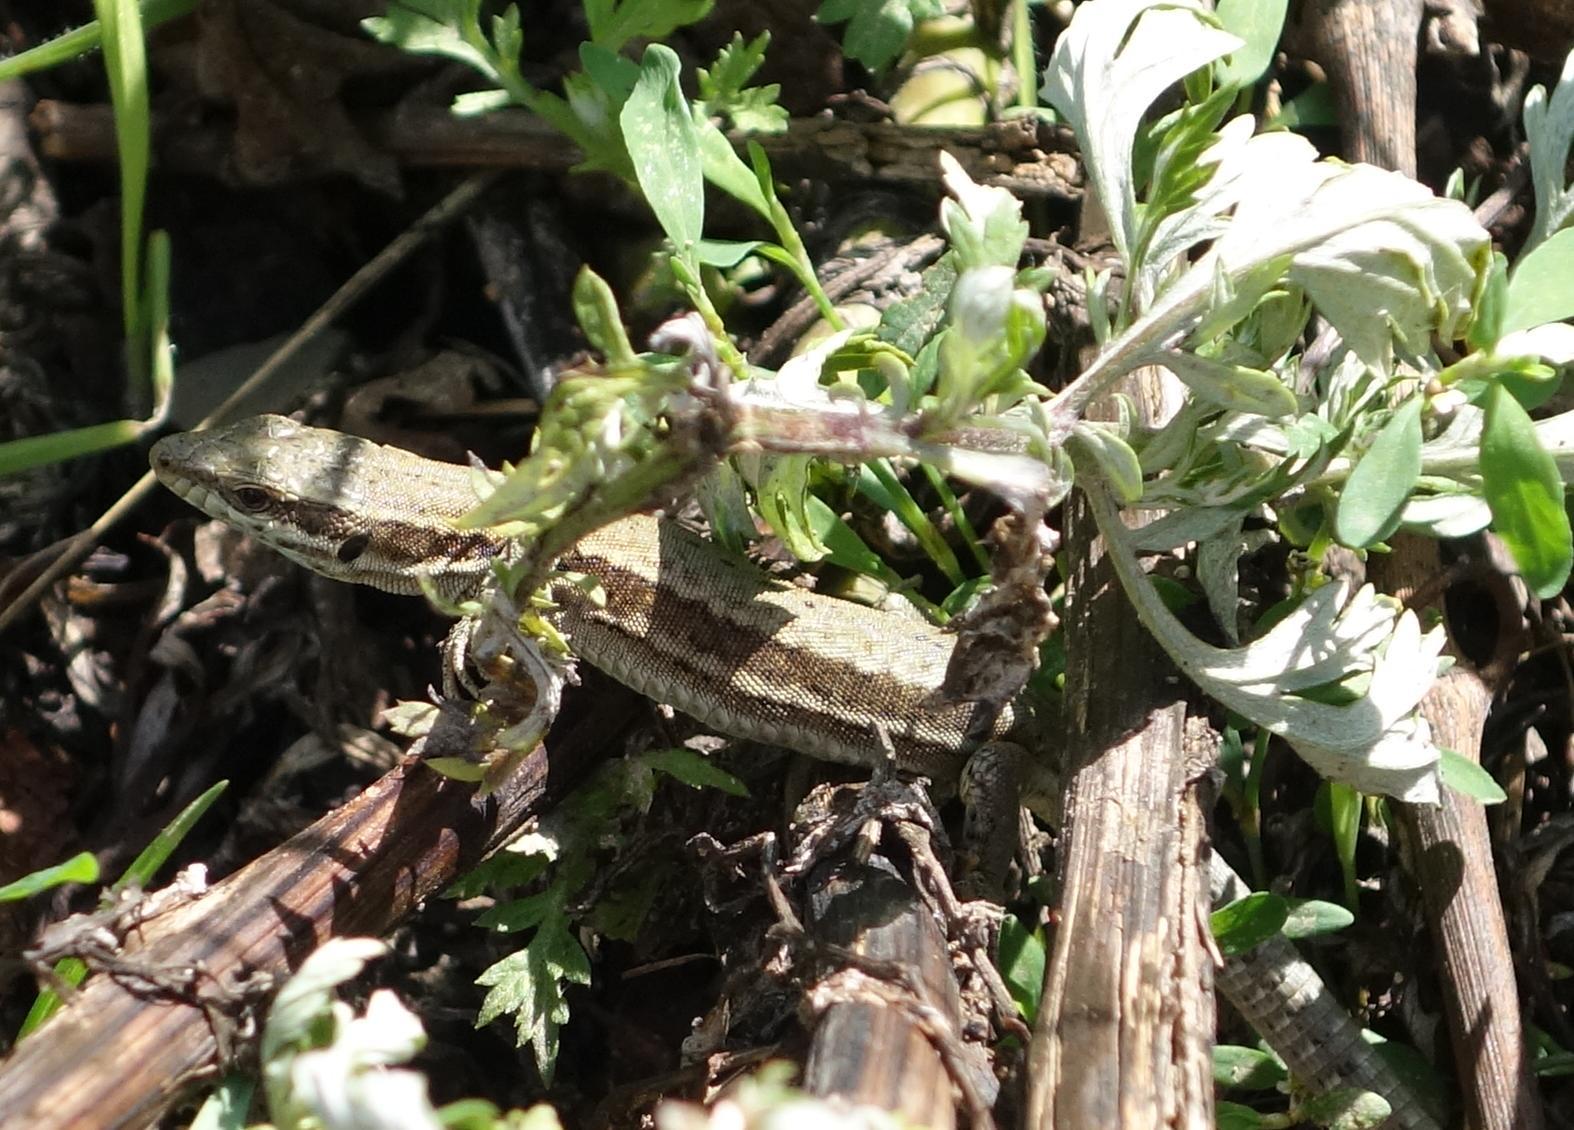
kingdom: Animalia
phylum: Chordata
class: Squamata
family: Lacertidae
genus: Podarcis
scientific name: Podarcis muralis
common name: Common wall lizard
